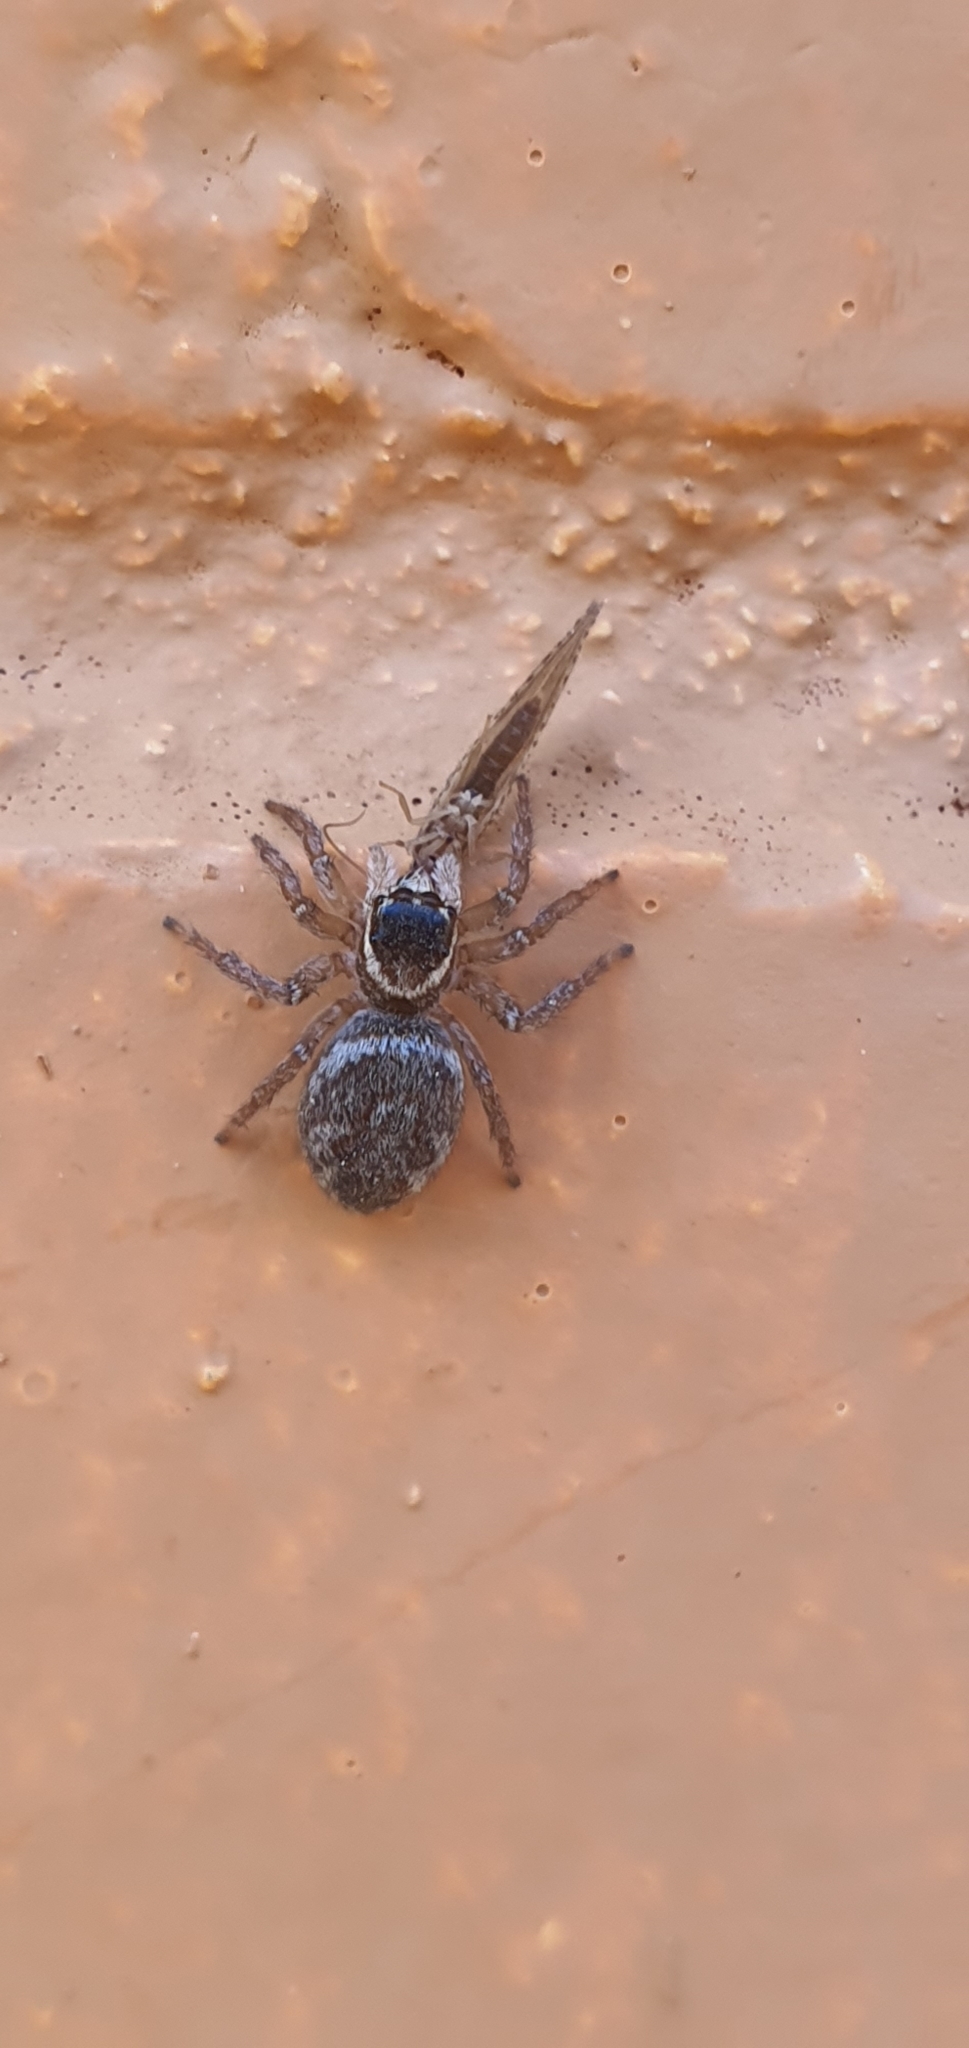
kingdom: Animalia
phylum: Arthropoda
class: Arachnida
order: Araneae
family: Salticidae
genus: Maratus
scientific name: Maratus griseus
